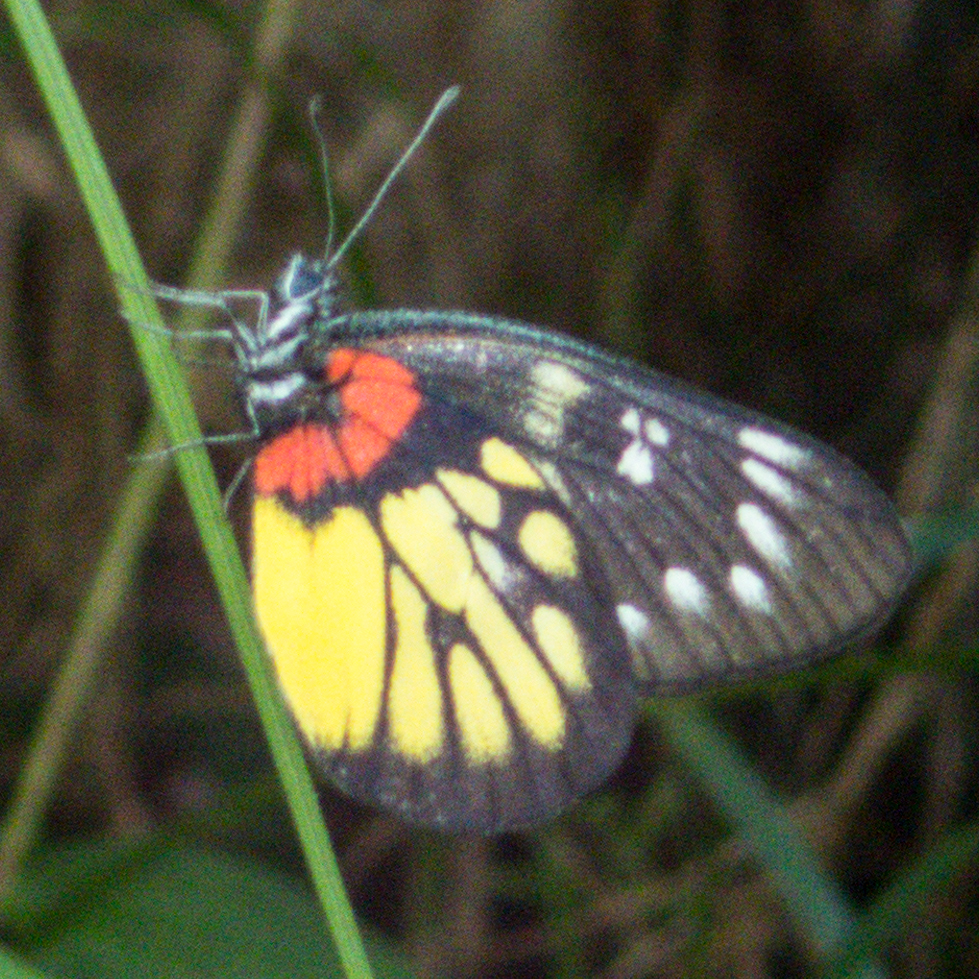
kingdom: Animalia
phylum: Arthropoda
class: Insecta
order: Lepidoptera
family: Pieridae
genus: Delias
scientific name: Delias pasithoe
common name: Red-base jezebel
